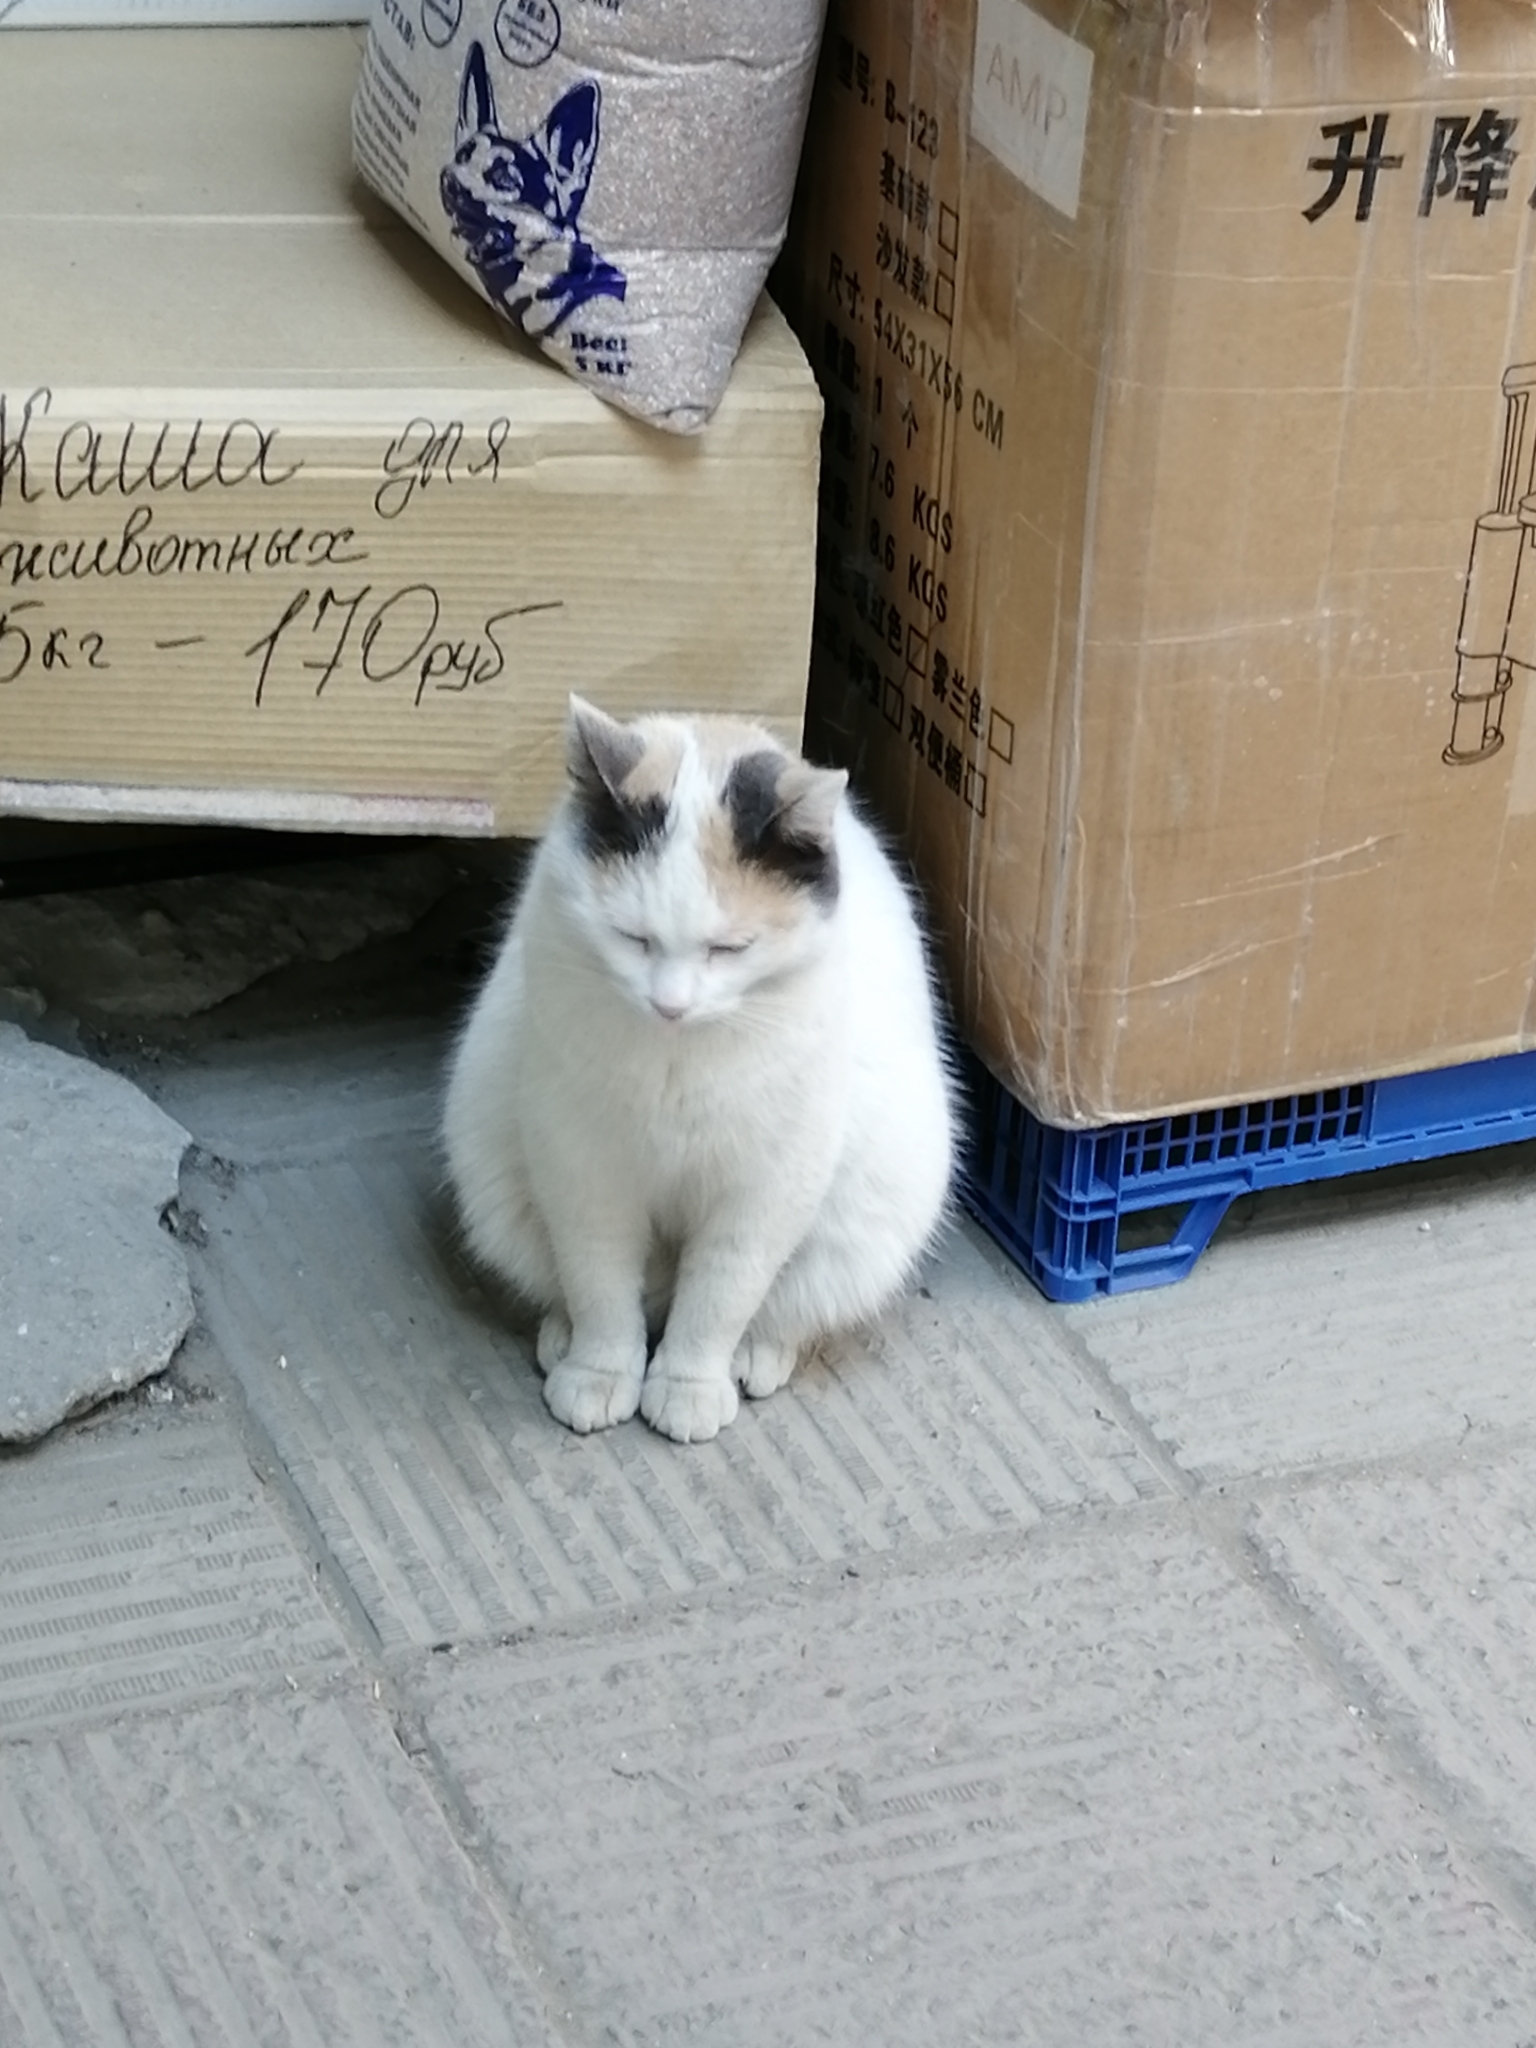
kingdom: Animalia
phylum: Chordata
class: Mammalia
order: Carnivora
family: Felidae
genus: Felis
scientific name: Felis catus
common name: Domestic cat
